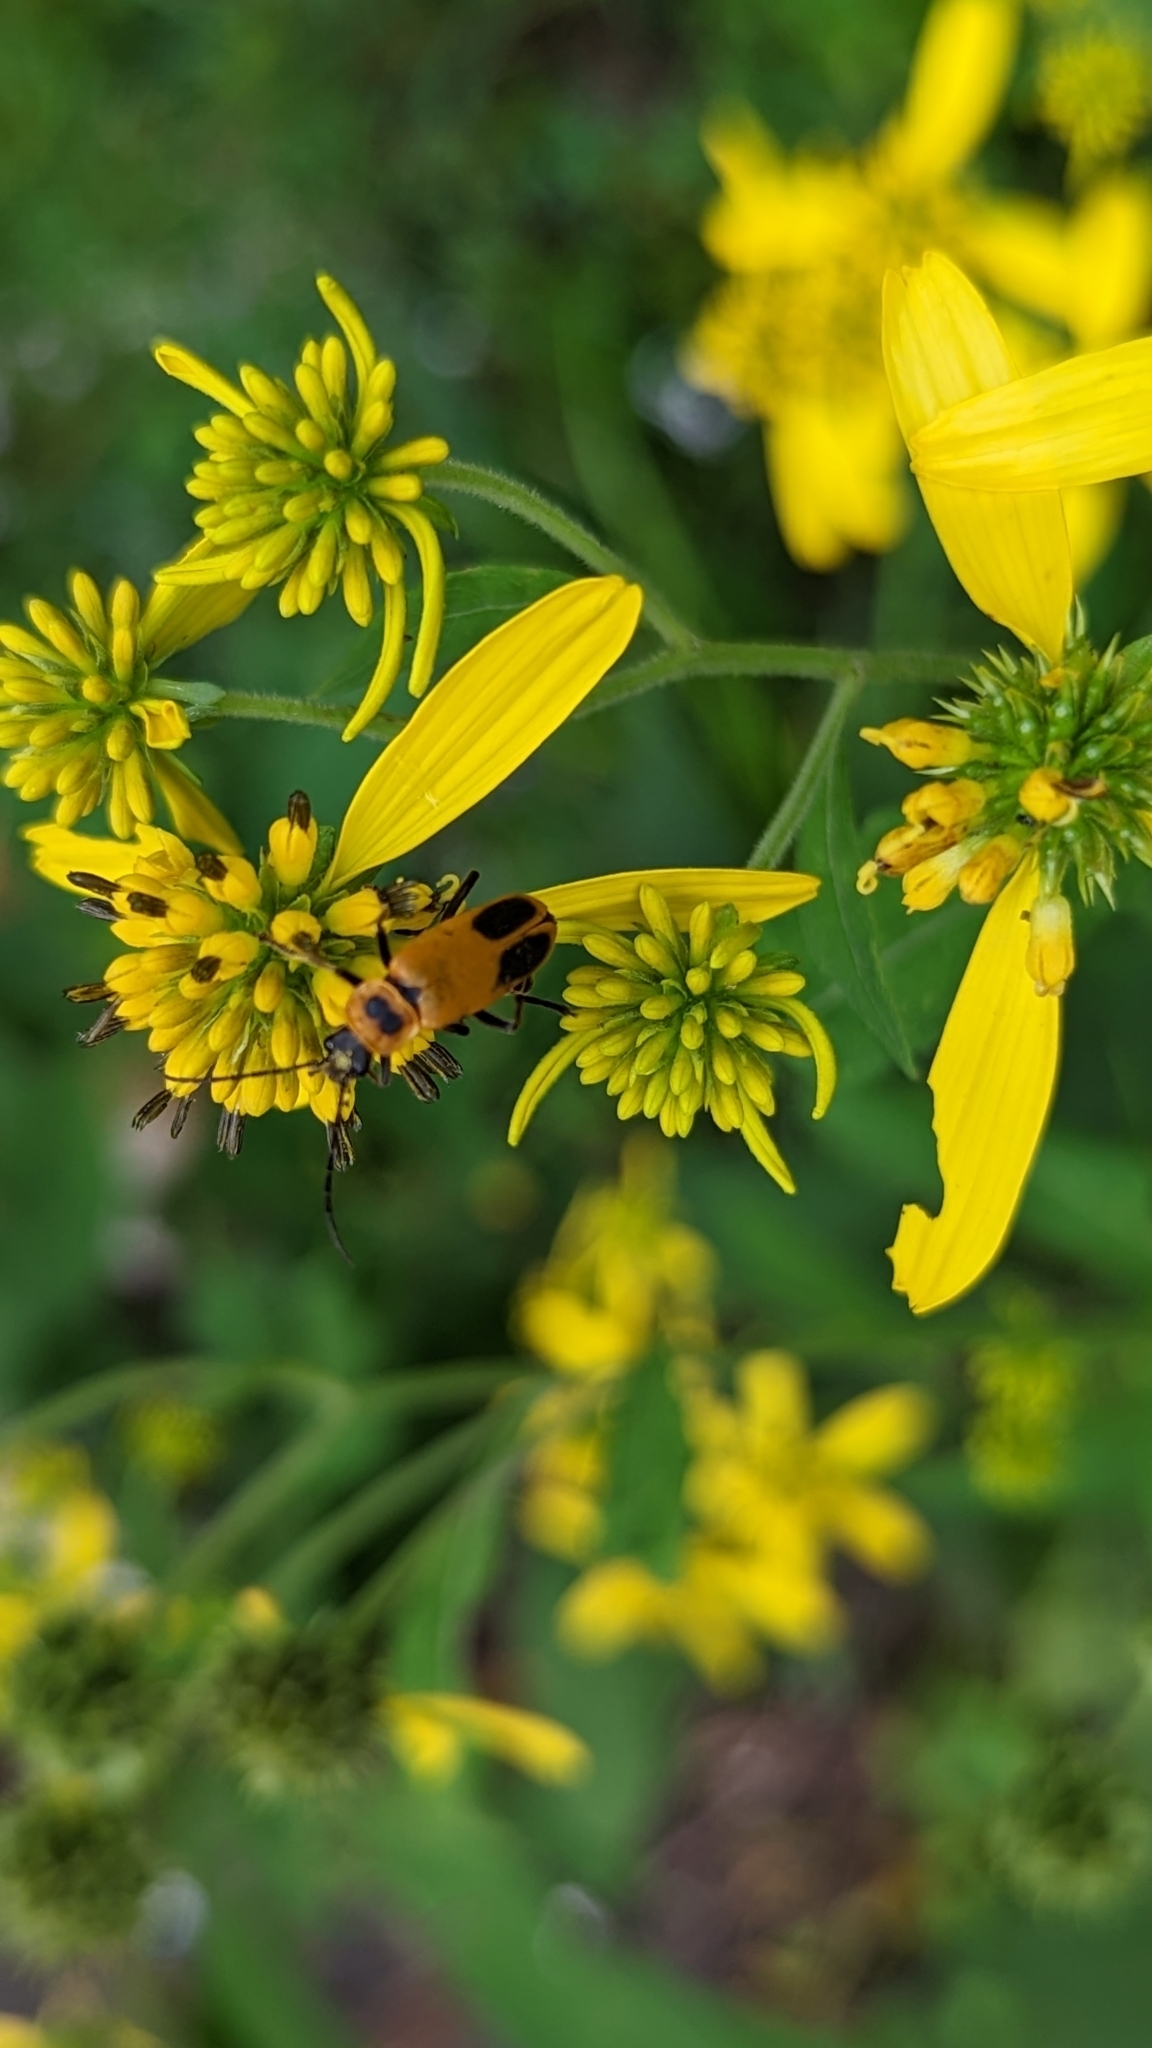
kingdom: Animalia
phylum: Arthropoda
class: Insecta
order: Coleoptera
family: Cantharidae
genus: Chauliognathus
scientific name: Chauliognathus pensylvanicus
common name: Goldenrod soldier beetle
